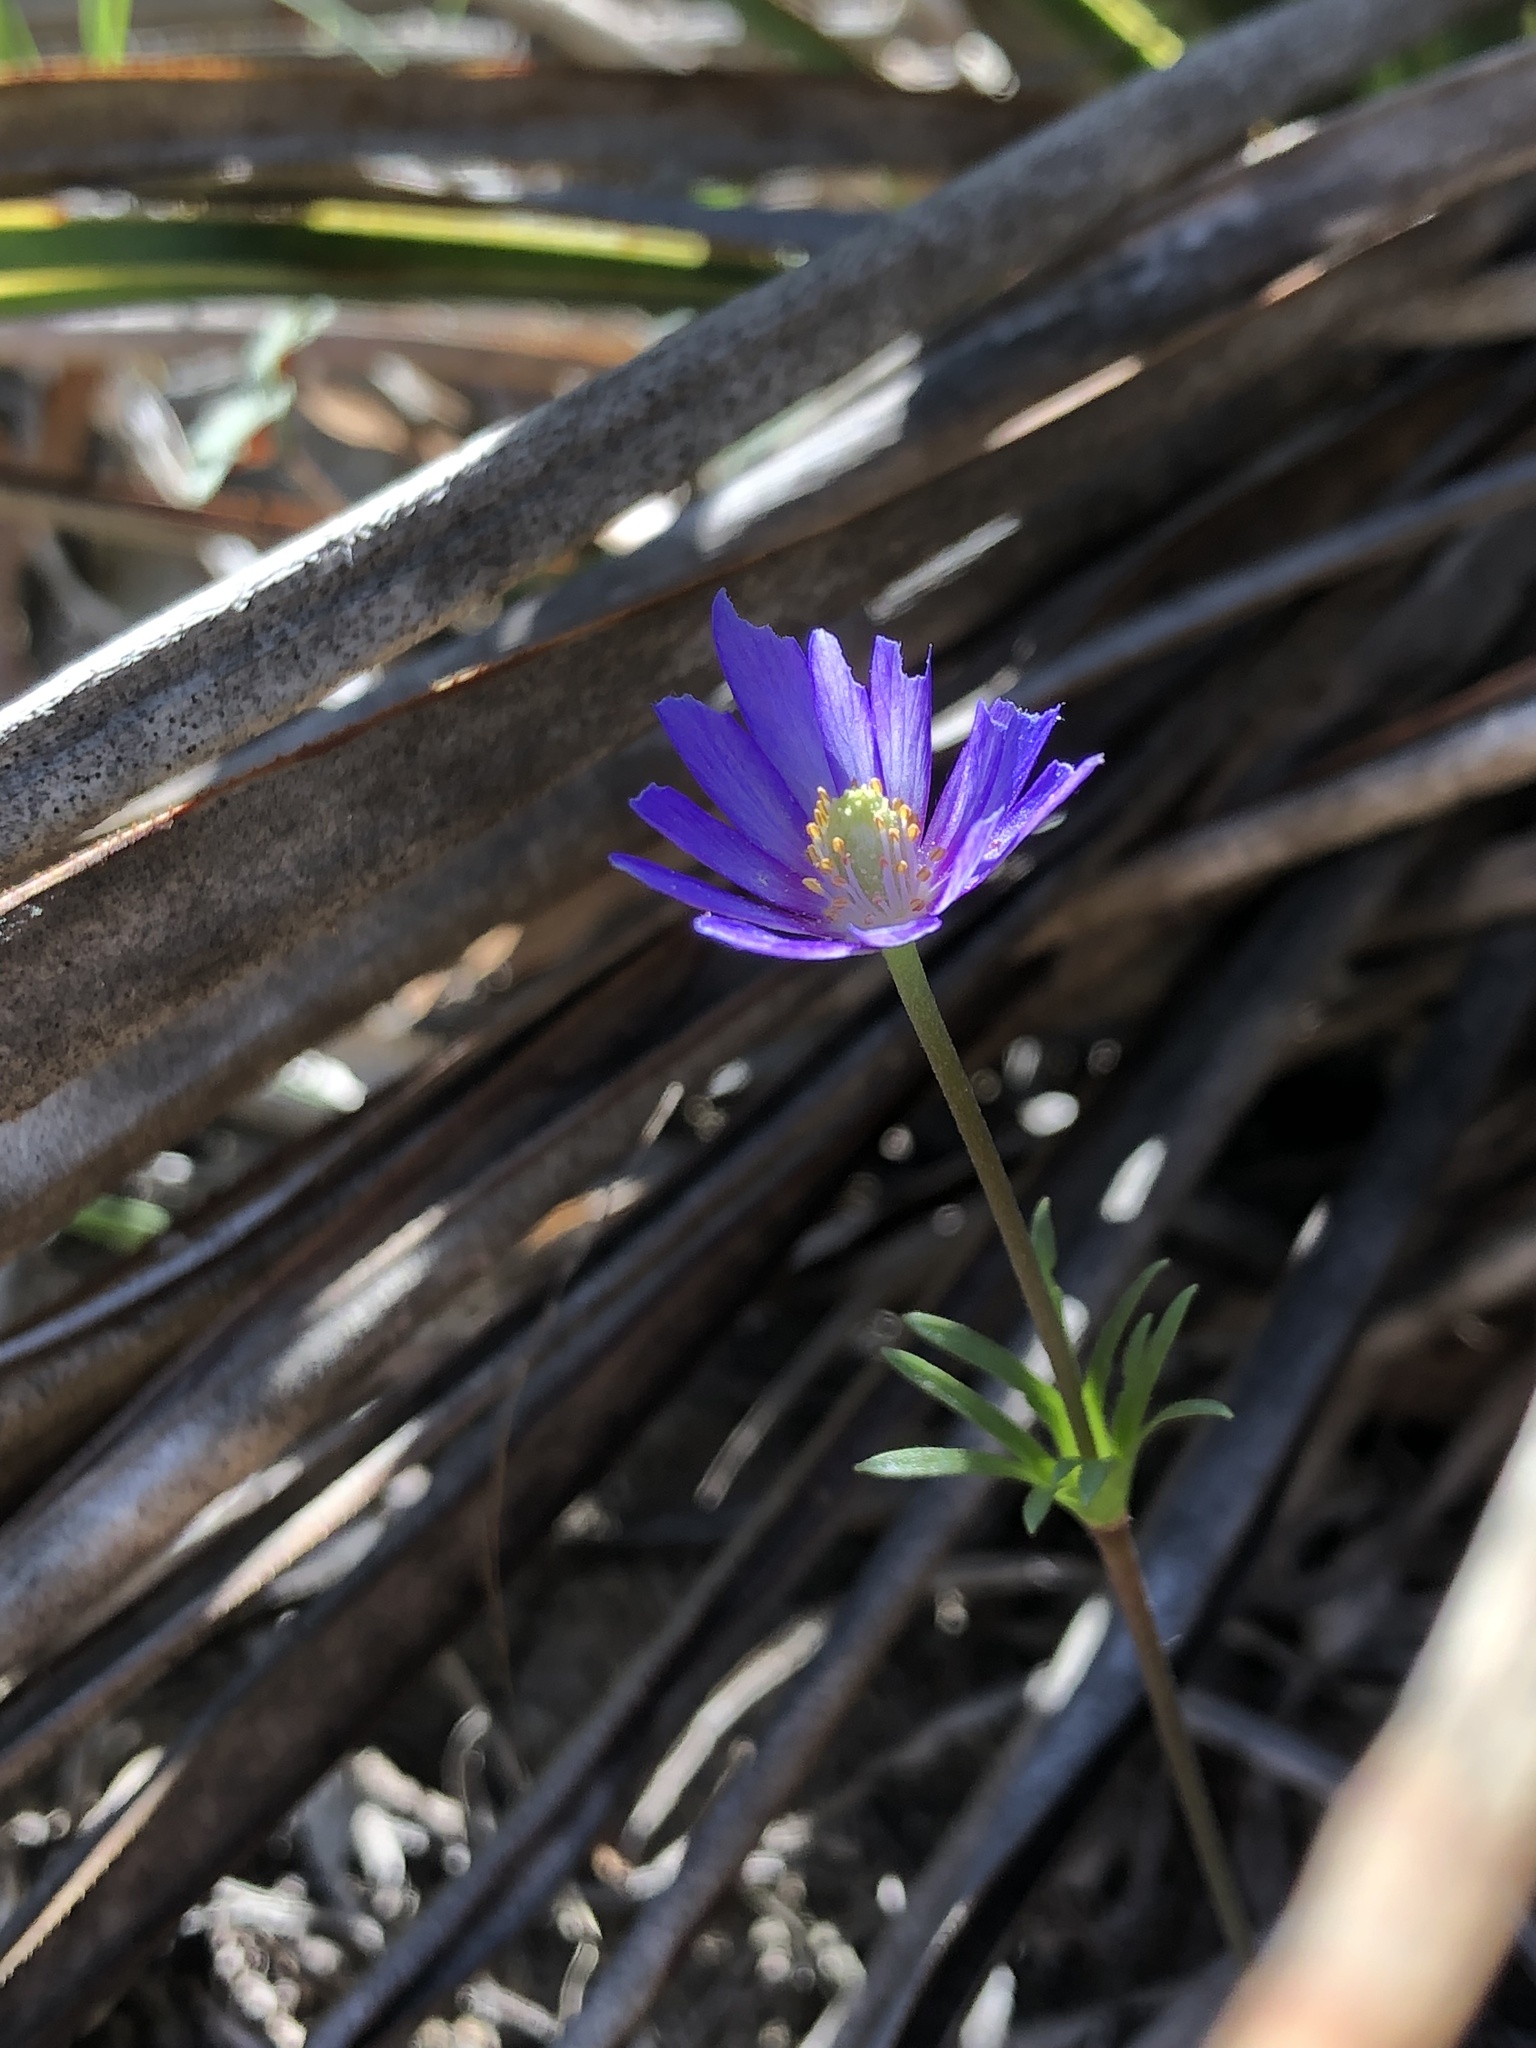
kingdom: Plantae
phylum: Tracheophyta
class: Magnoliopsida
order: Ranunculales
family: Ranunculaceae
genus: Anemone
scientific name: Anemone berlandieri
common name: Ten-petal anemone
